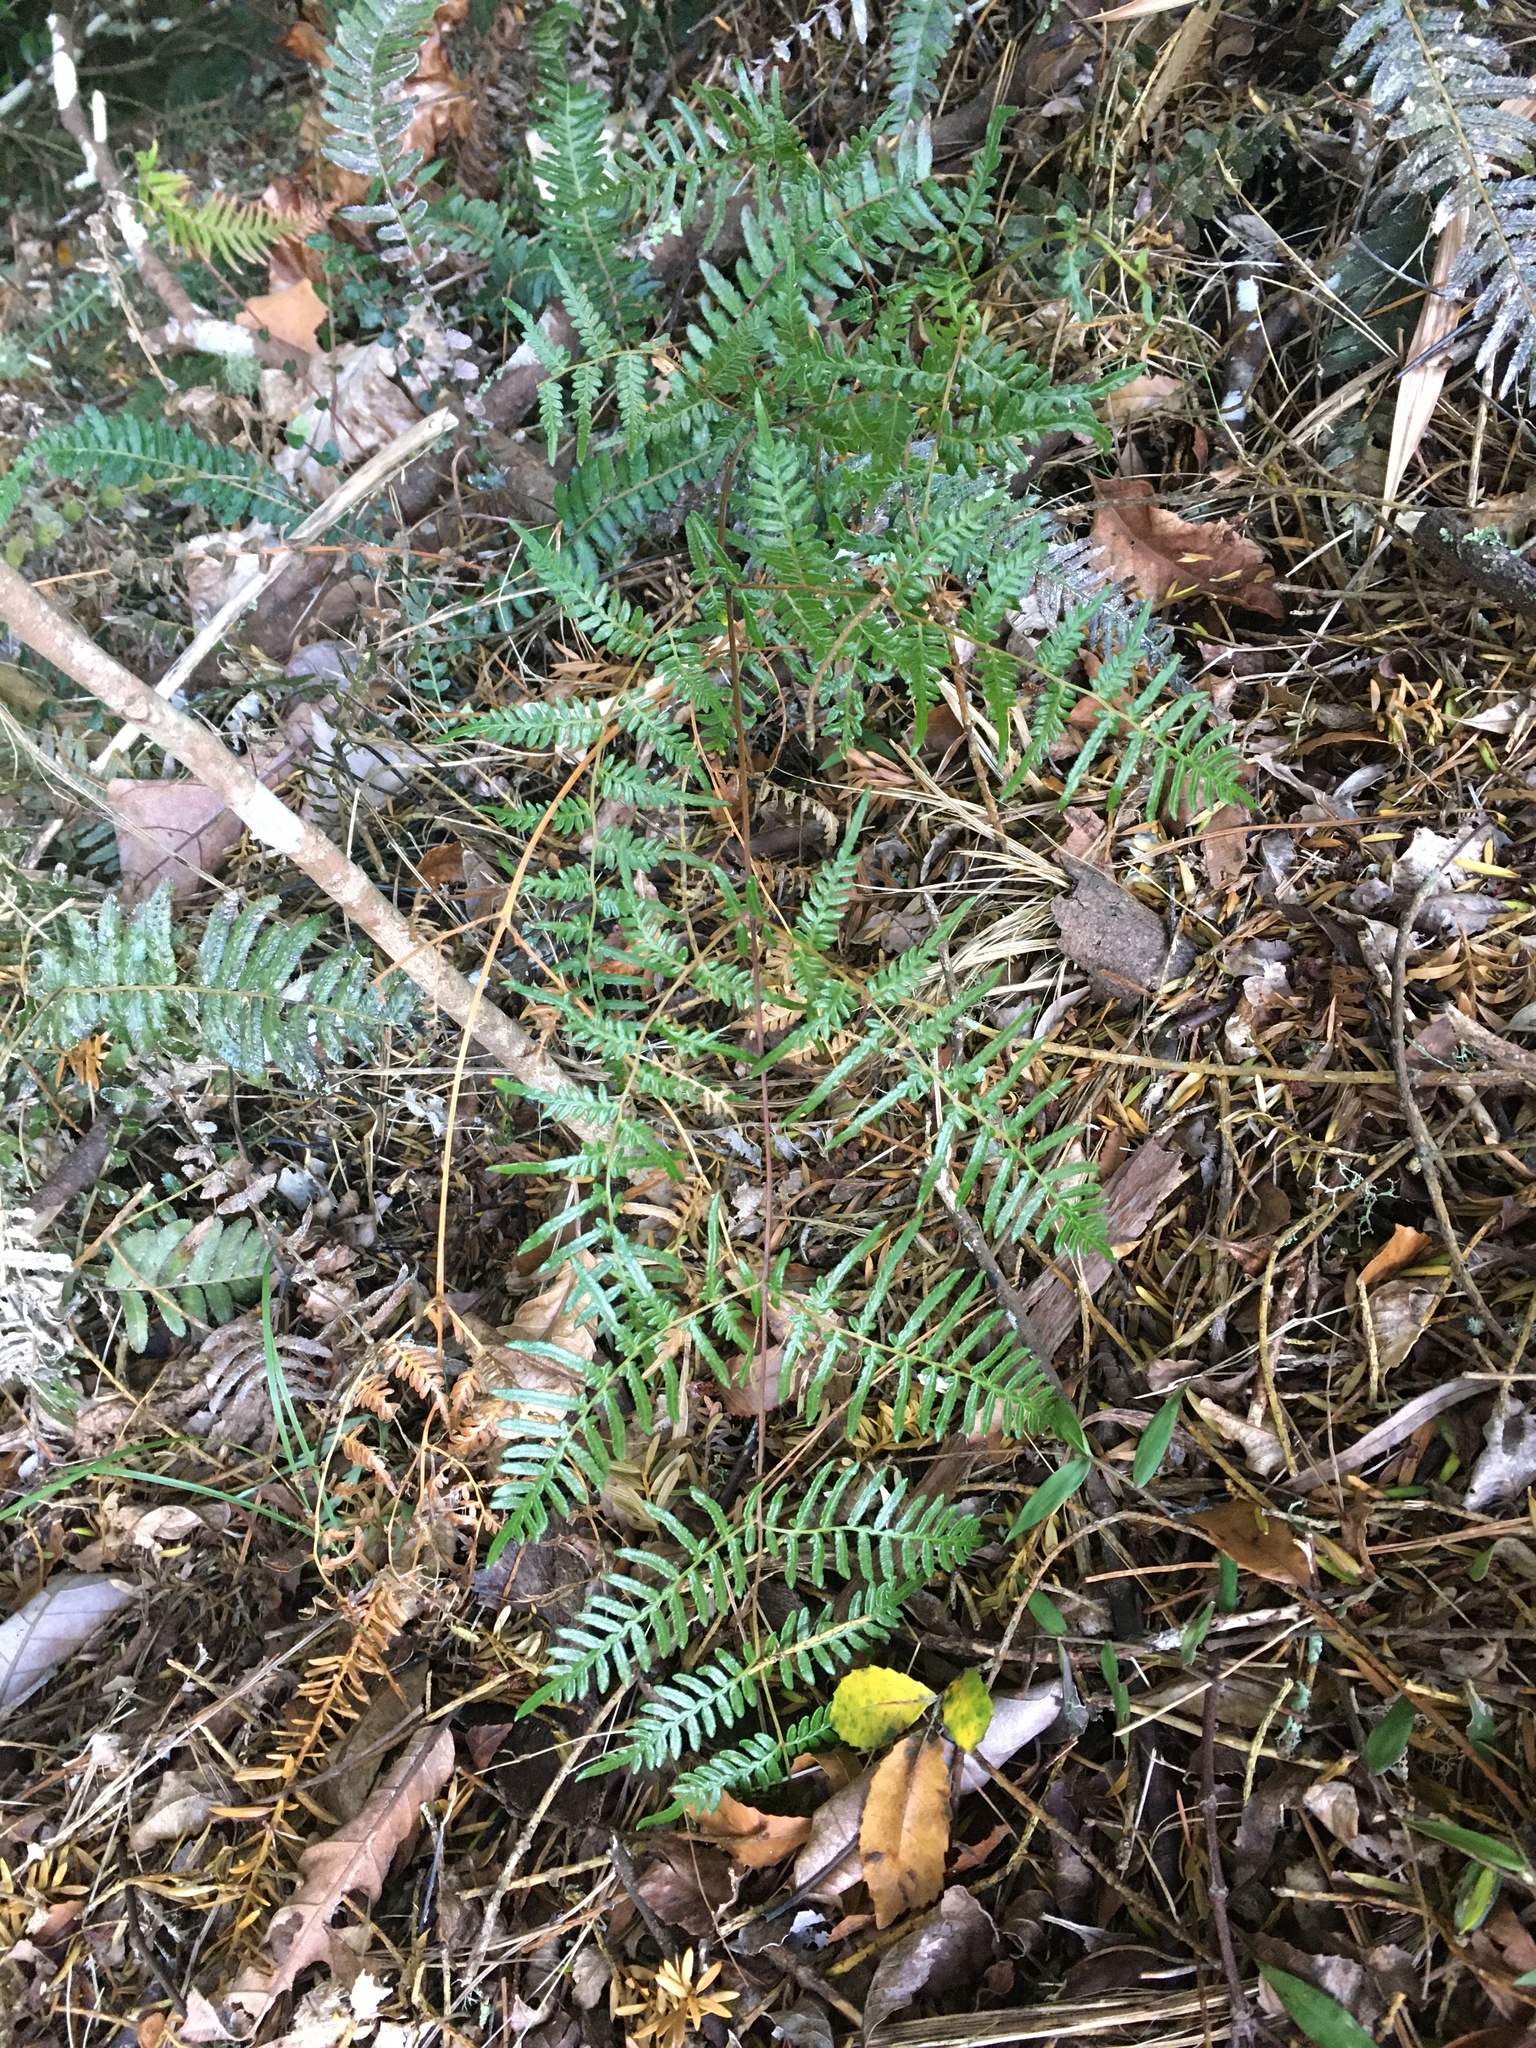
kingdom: Plantae
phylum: Tracheophyta
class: Polypodiopsida
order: Polypodiales
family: Dennstaedtiaceae
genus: Pteridium
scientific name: Pteridium esculentum
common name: Bracken fern
